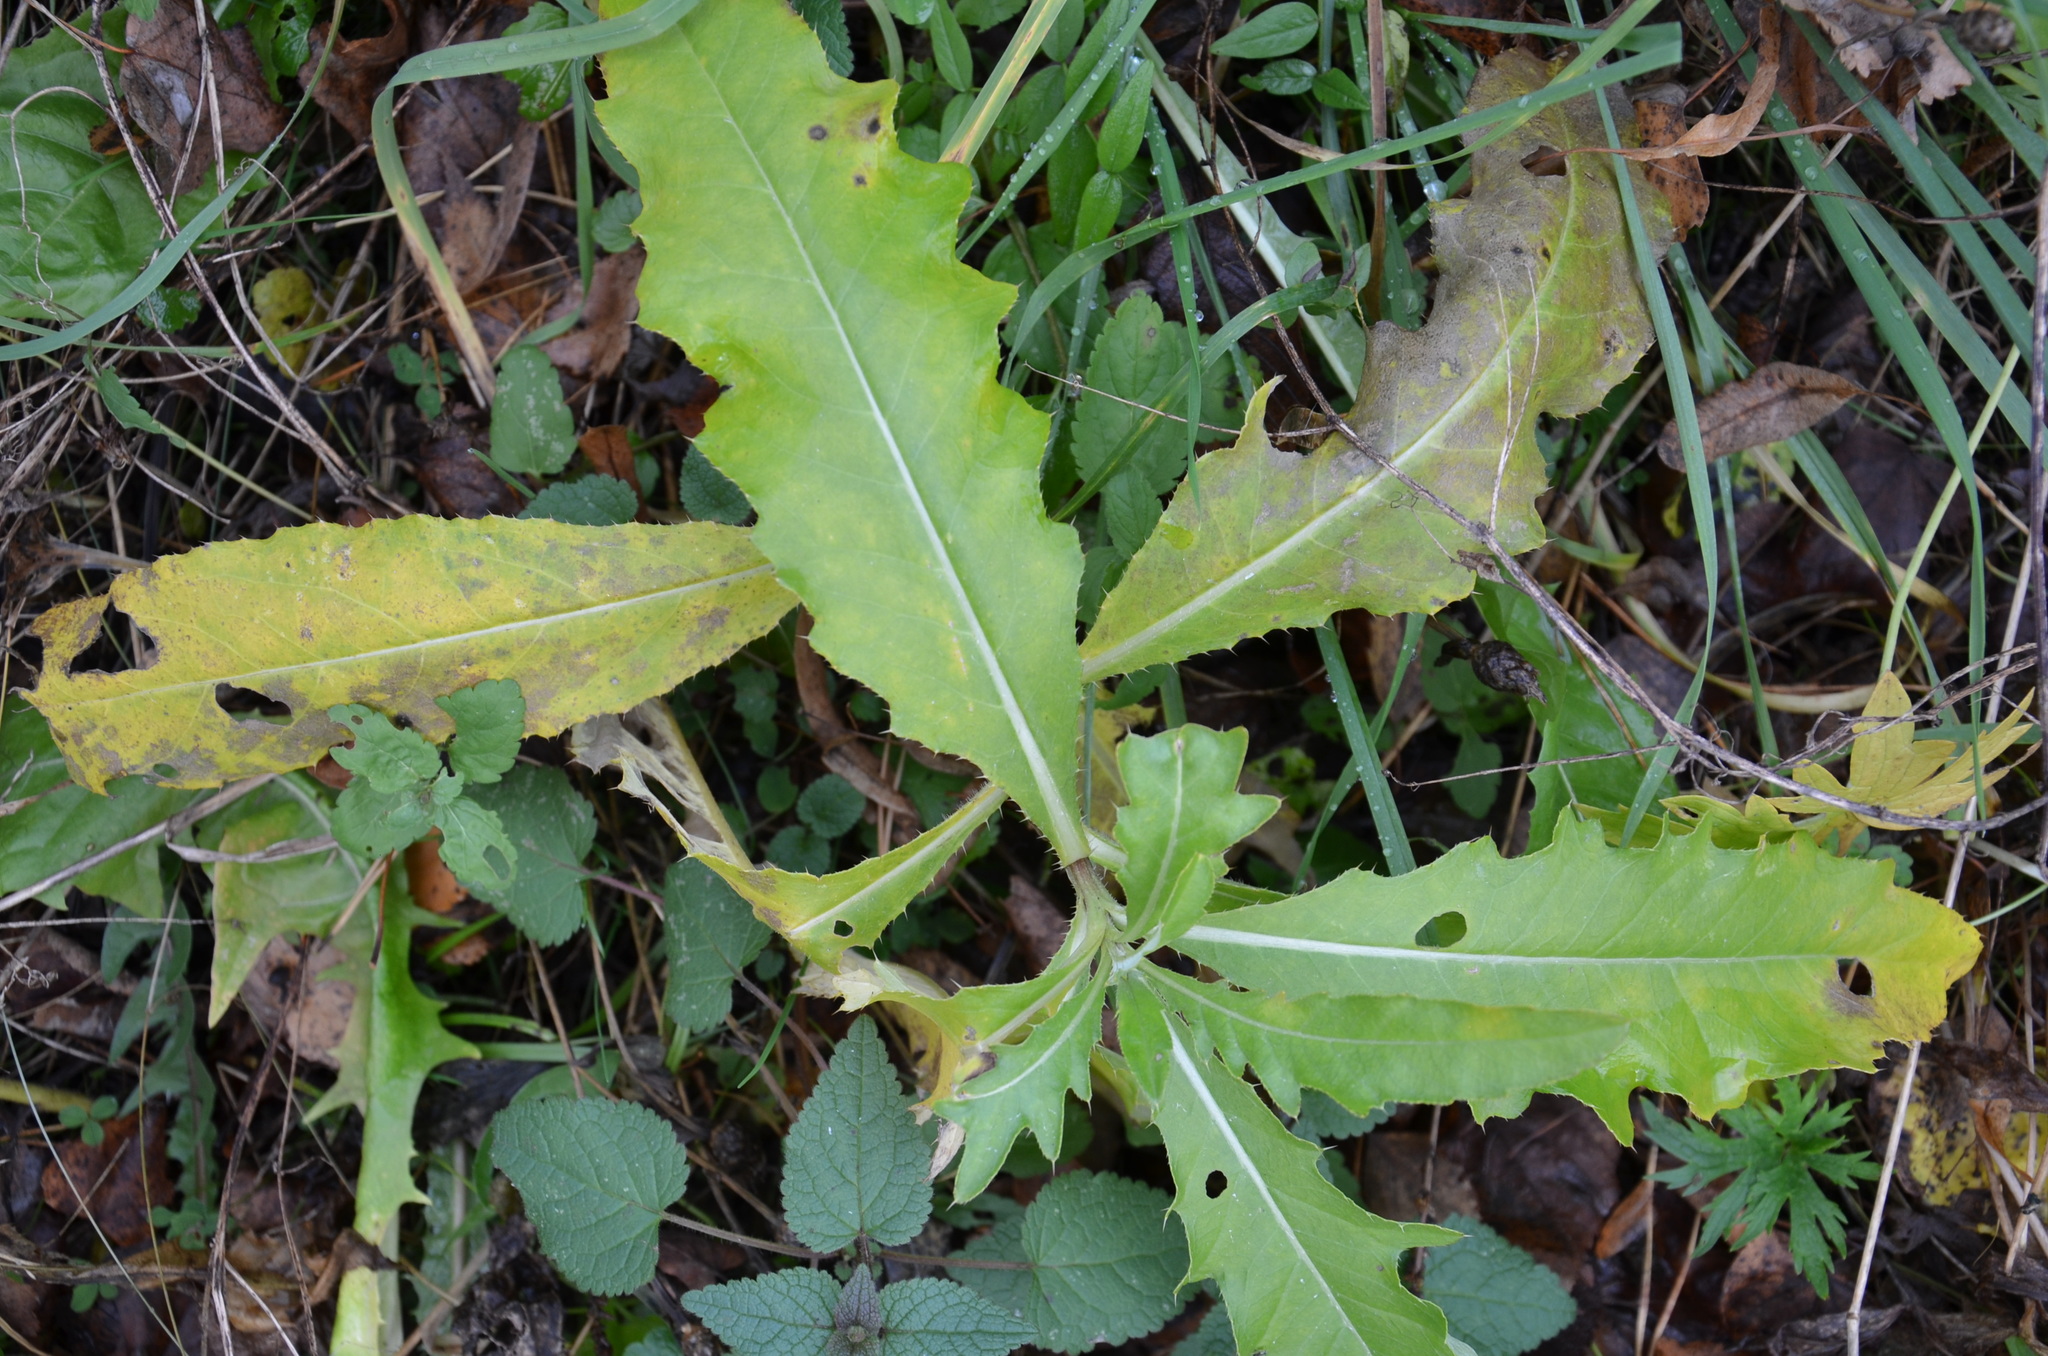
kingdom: Plantae
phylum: Tracheophyta
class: Magnoliopsida
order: Asterales
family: Asteraceae
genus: Cirsium
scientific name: Cirsium arvense
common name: Creeping thistle
